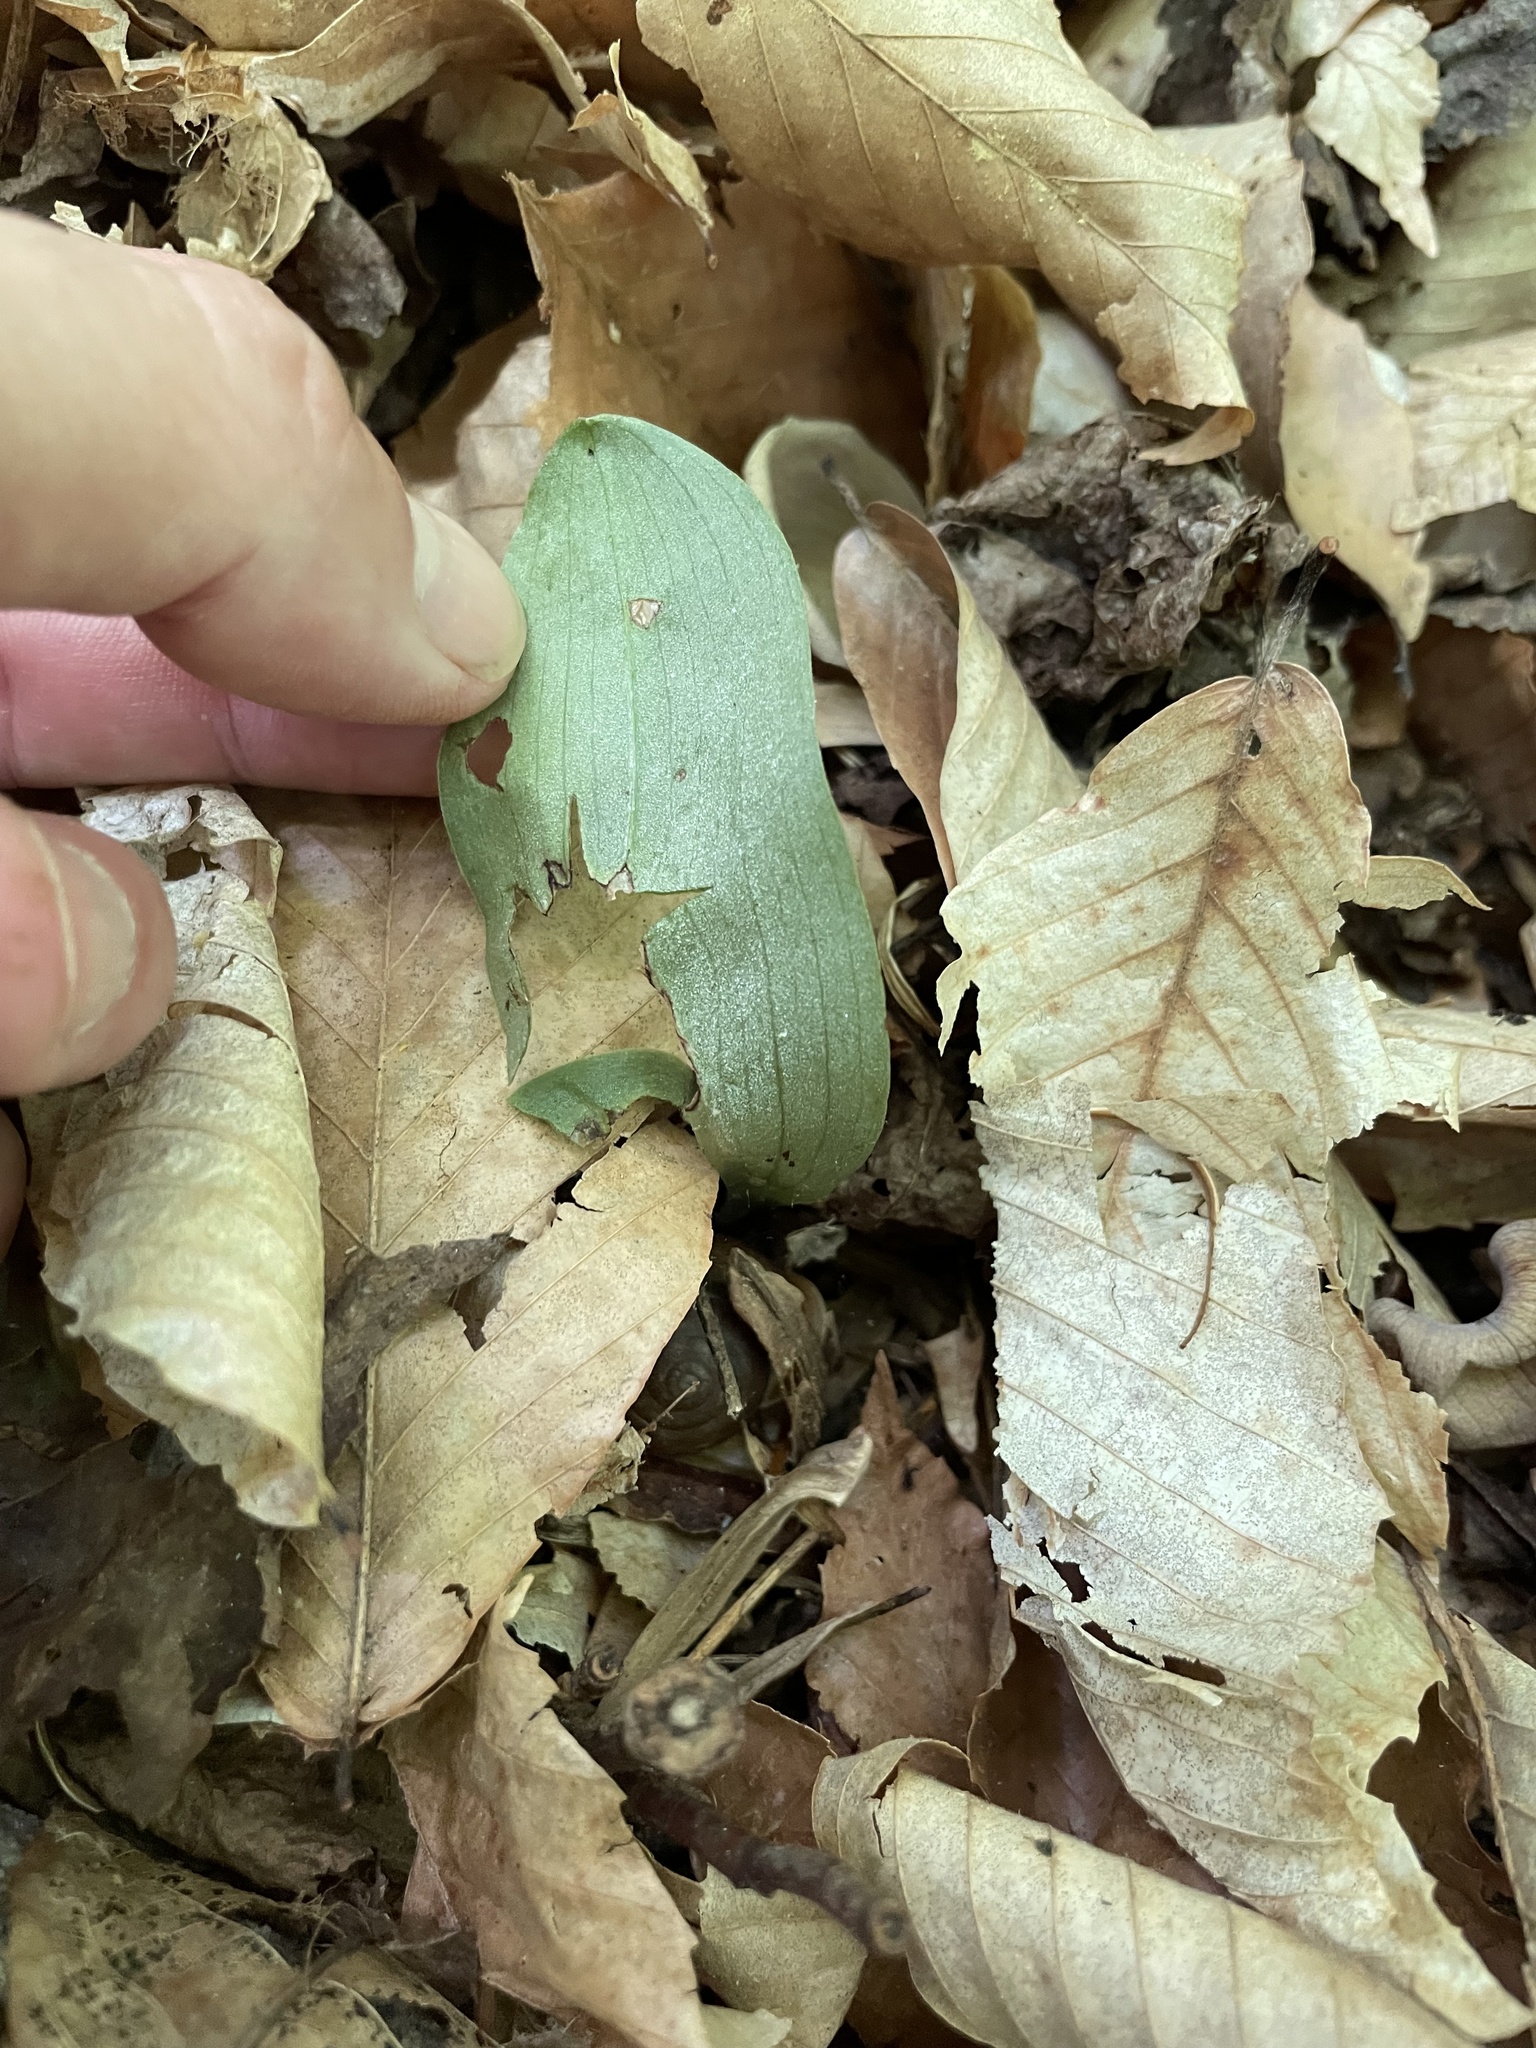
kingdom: Plantae
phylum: Tracheophyta
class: Liliopsida
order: Asparagales
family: Orchidaceae
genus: Galearis
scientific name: Galearis spectabilis
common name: Purple-hooded orchis
